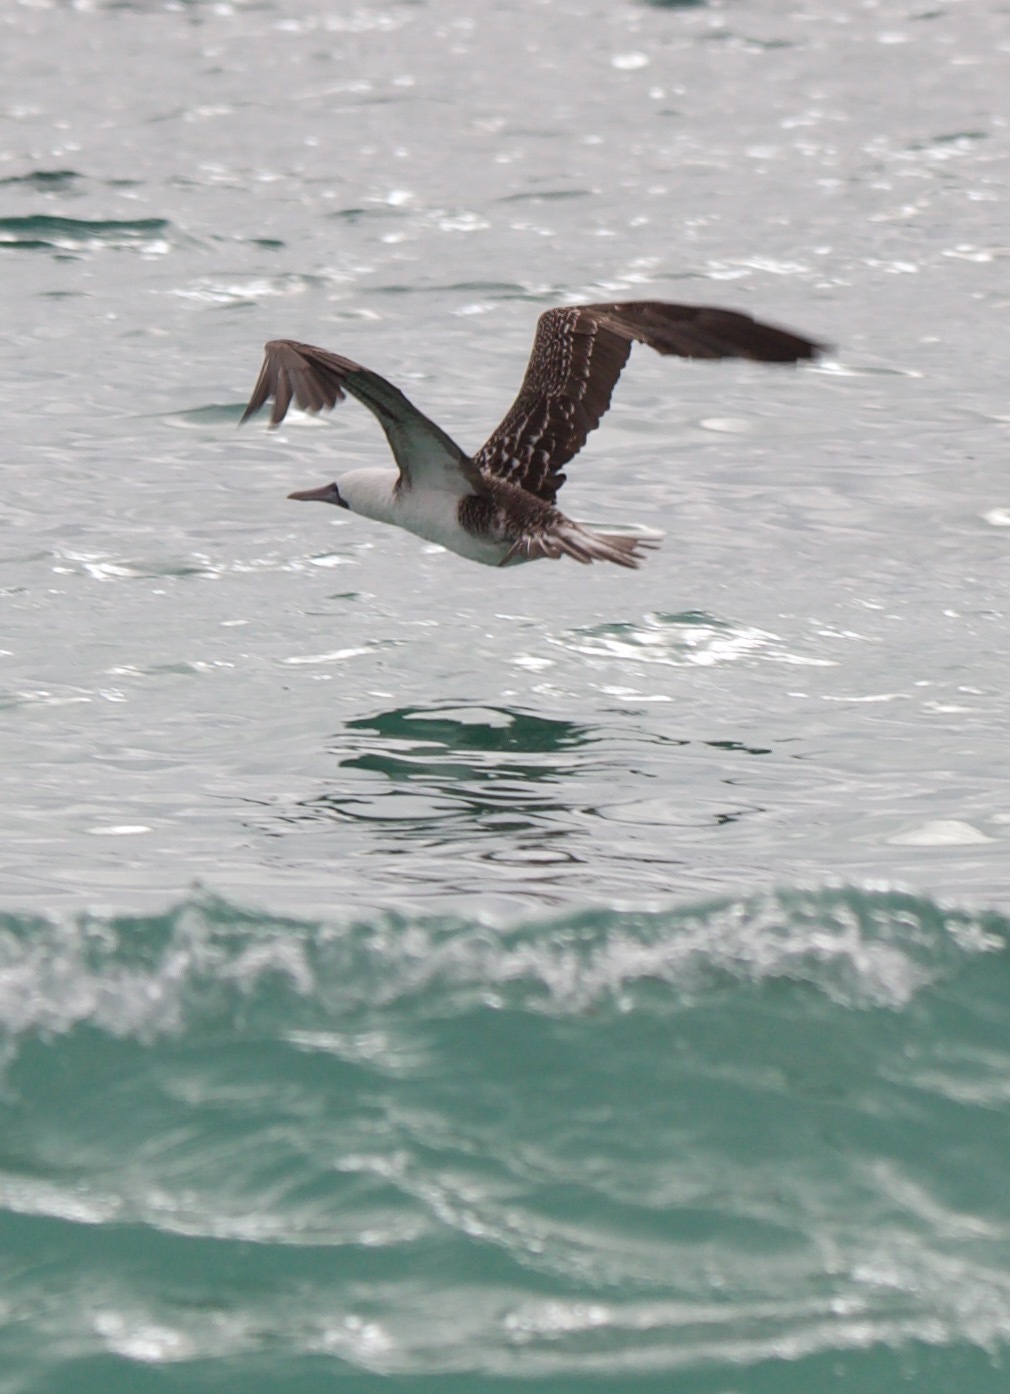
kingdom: Animalia
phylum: Chordata
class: Aves
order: Suliformes
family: Sulidae
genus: Sula
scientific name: Sula variegata
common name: Peruvian booby
